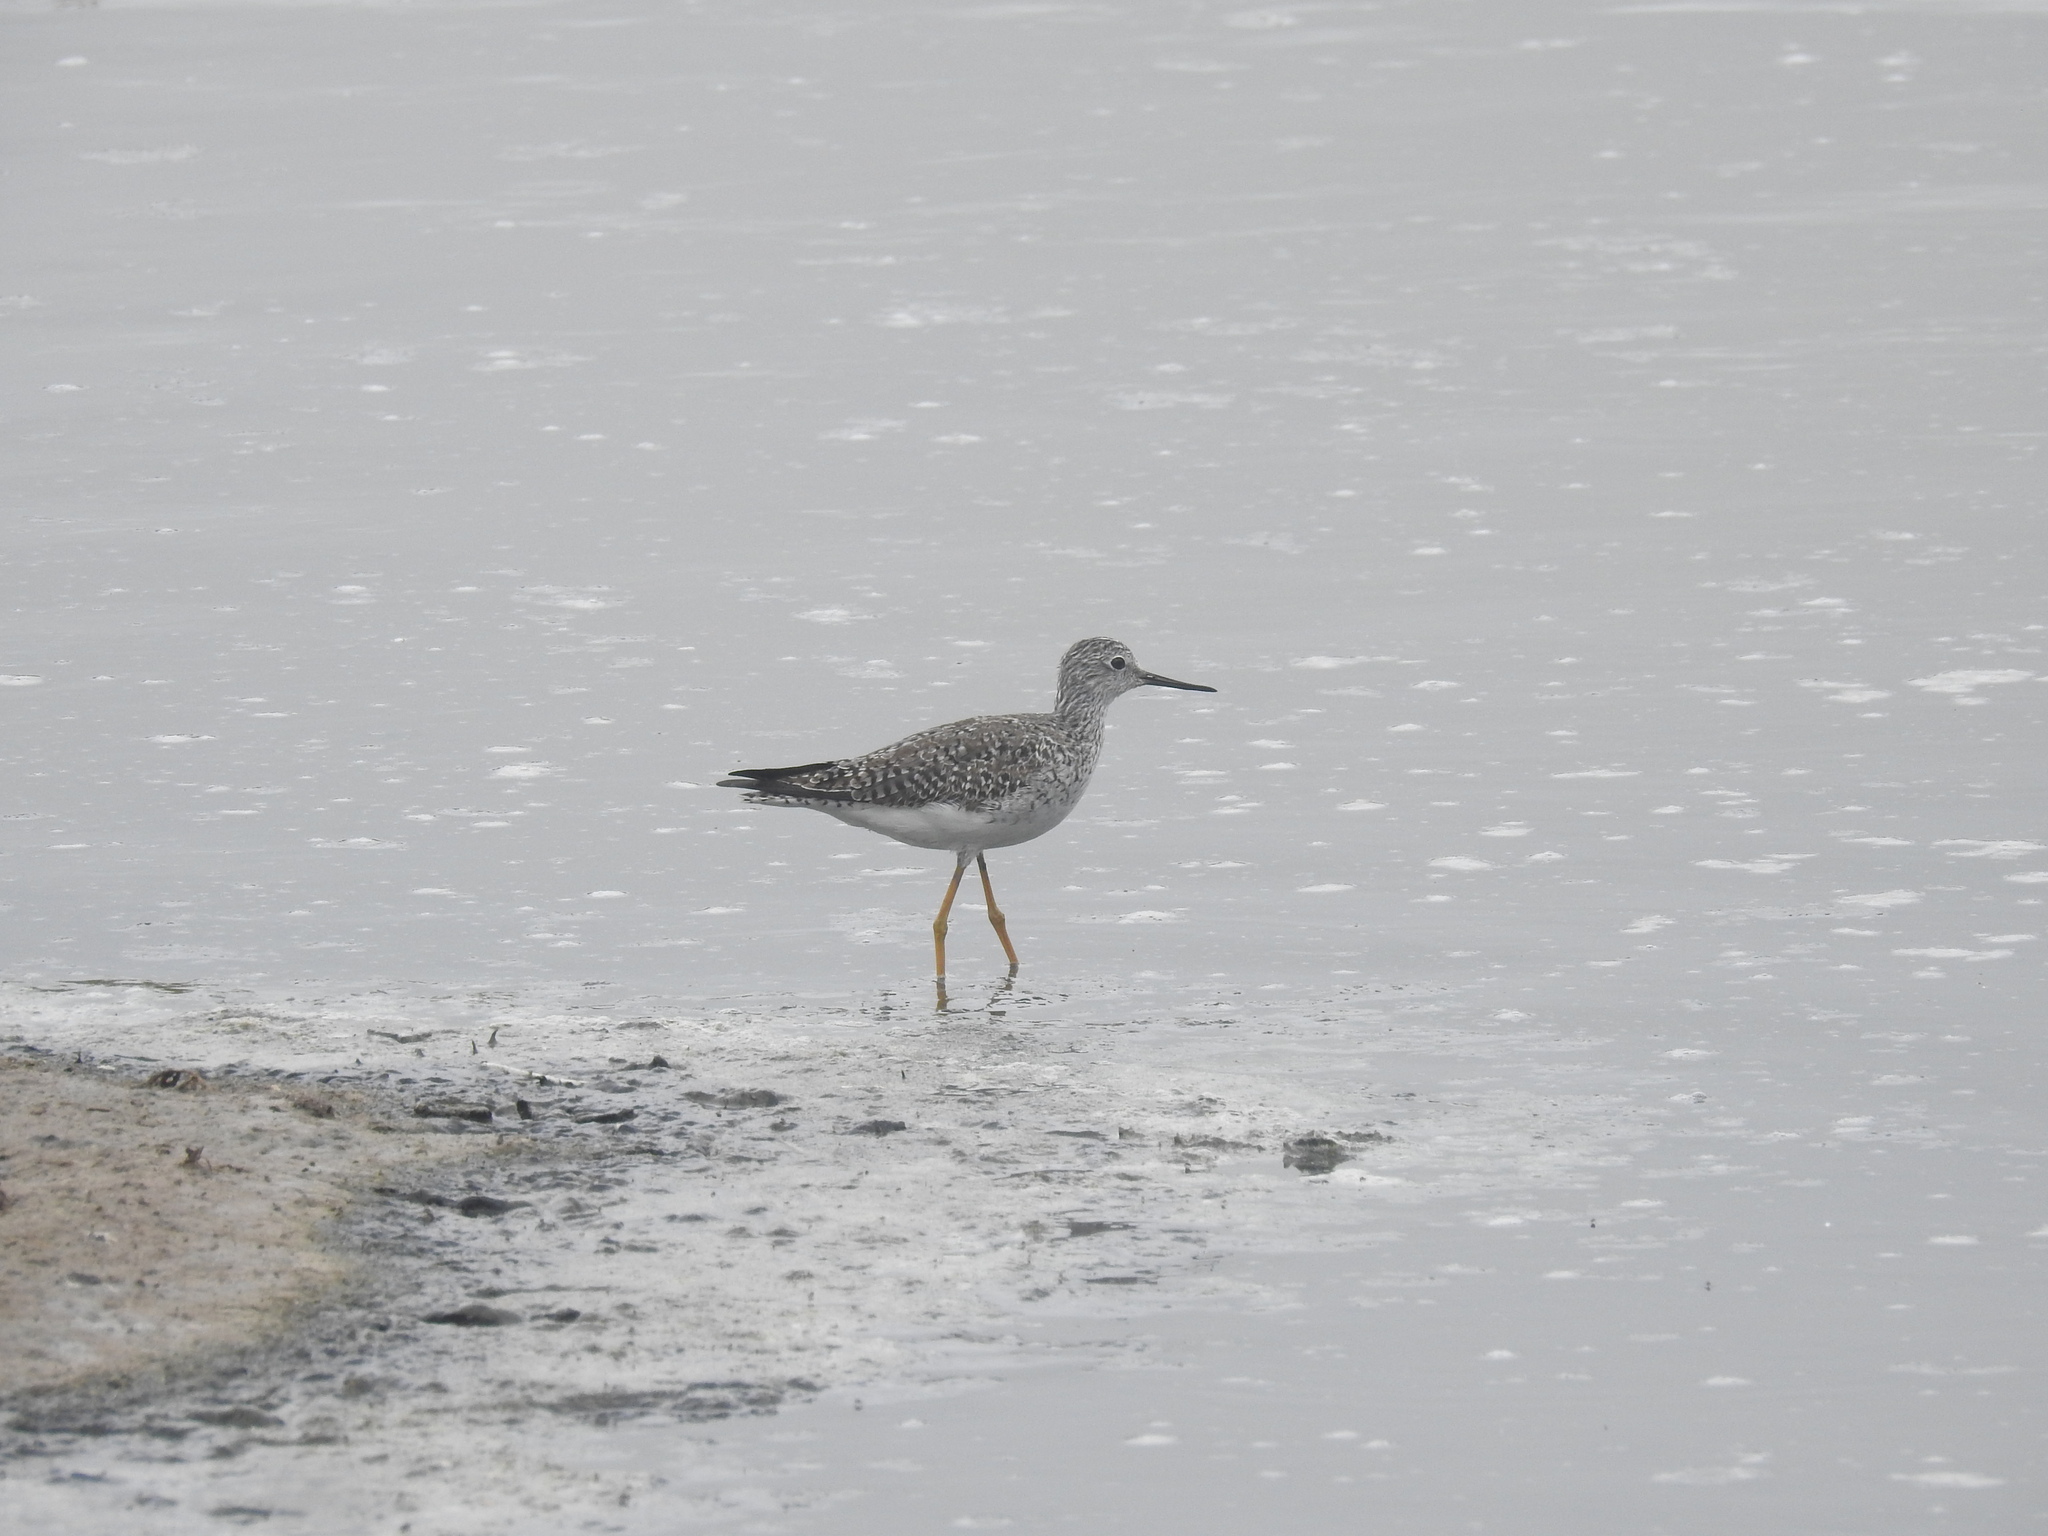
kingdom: Animalia
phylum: Chordata
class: Aves
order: Charadriiformes
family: Scolopacidae
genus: Tringa
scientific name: Tringa flavipes
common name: Lesser yellowlegs
